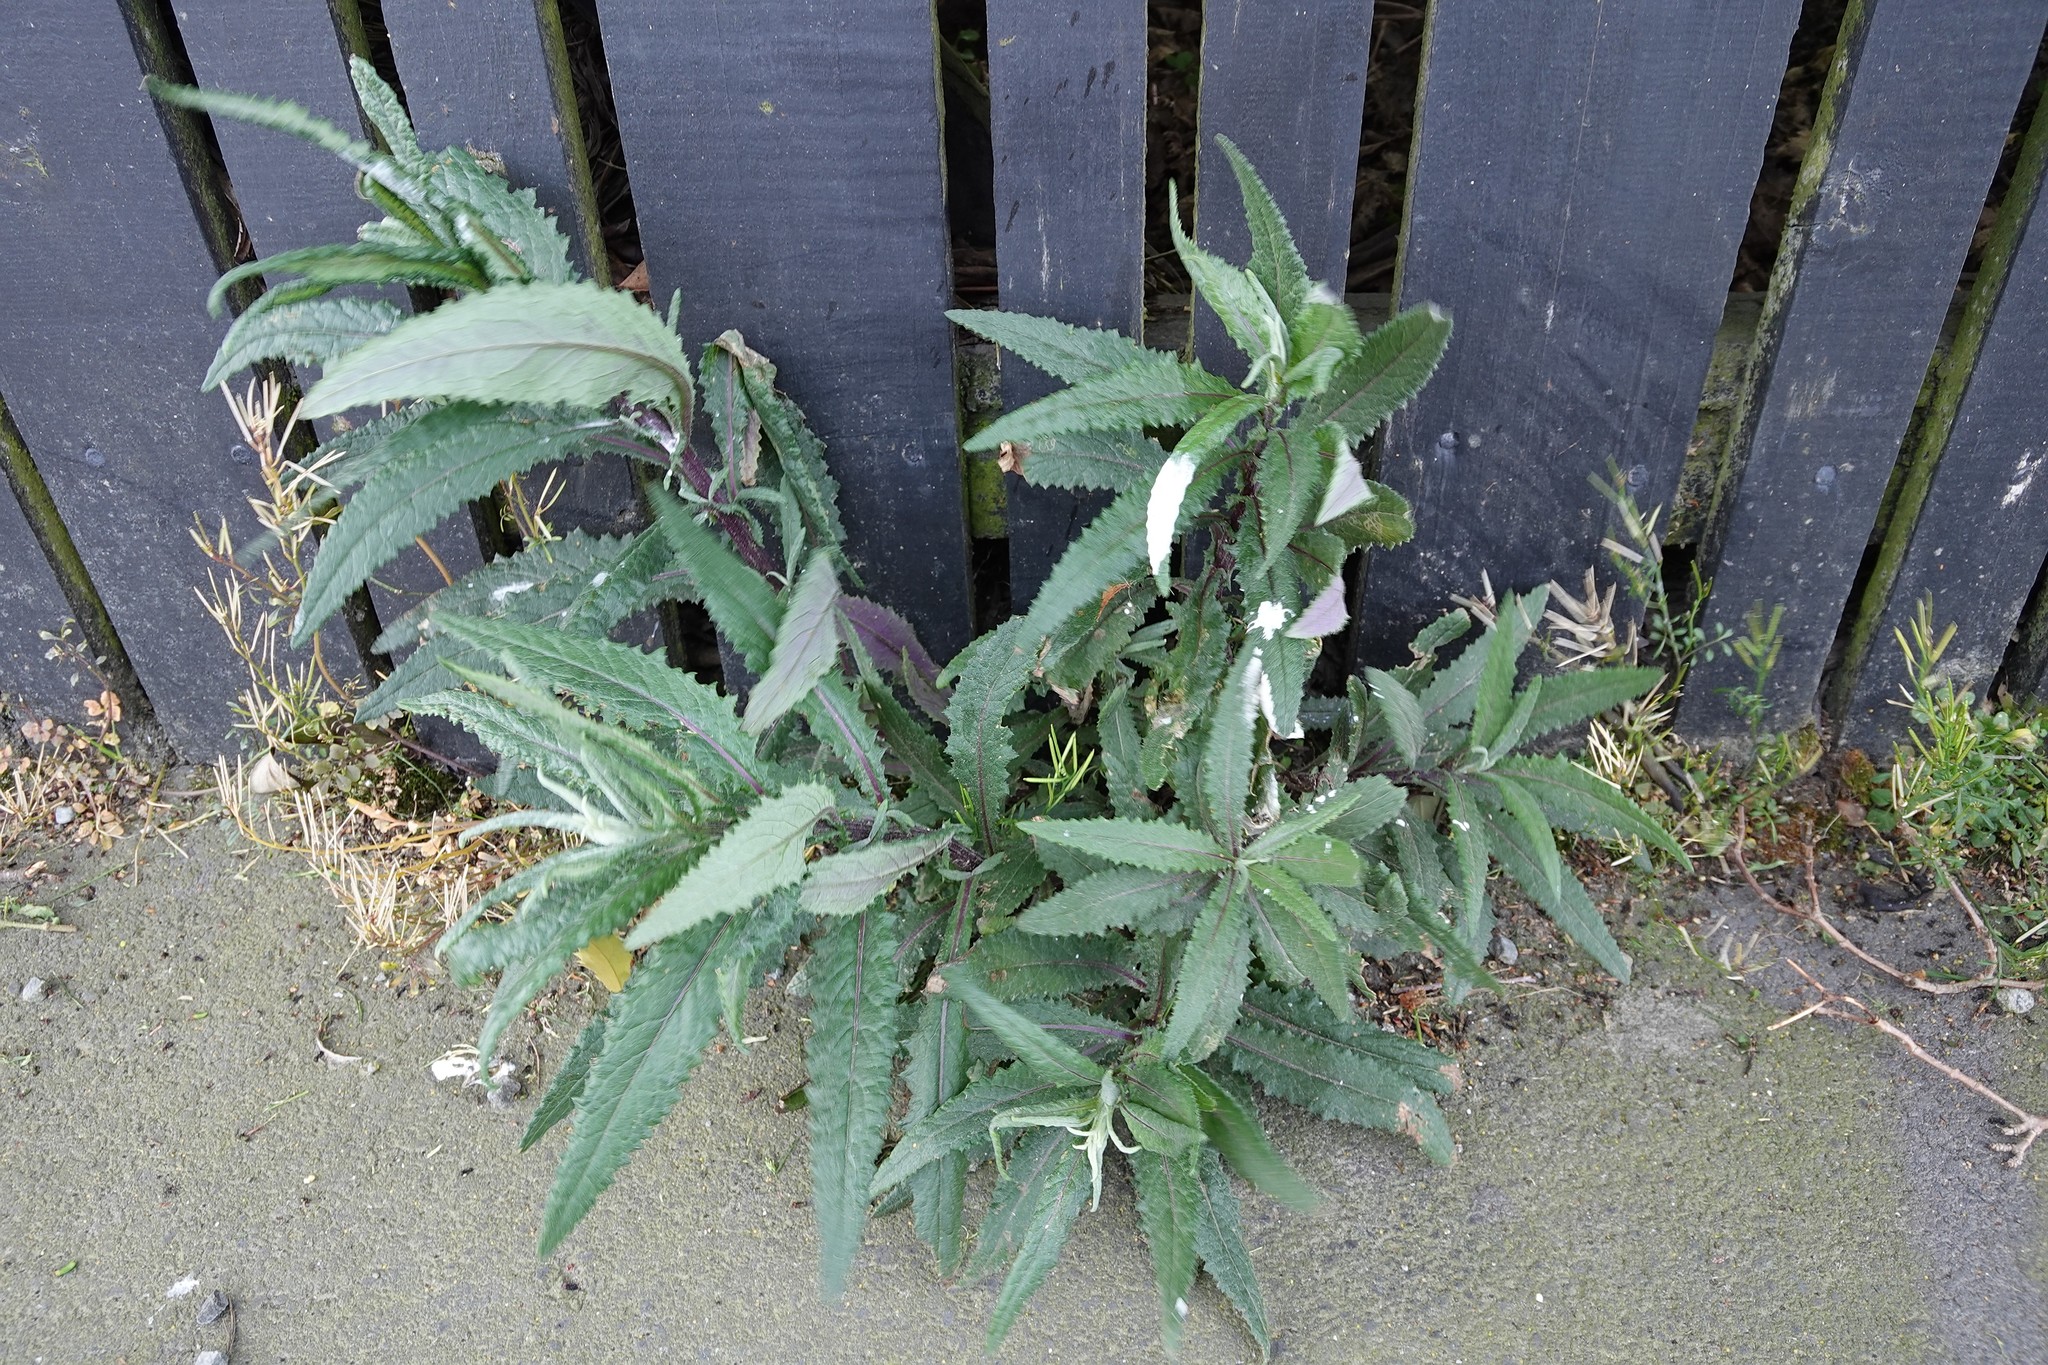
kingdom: Plantae
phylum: Tracheophyta
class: Magnoliopsida
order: Asterales
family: Asteraceae
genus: Senecio
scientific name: Senecio minimus
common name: Toothed fireweed
